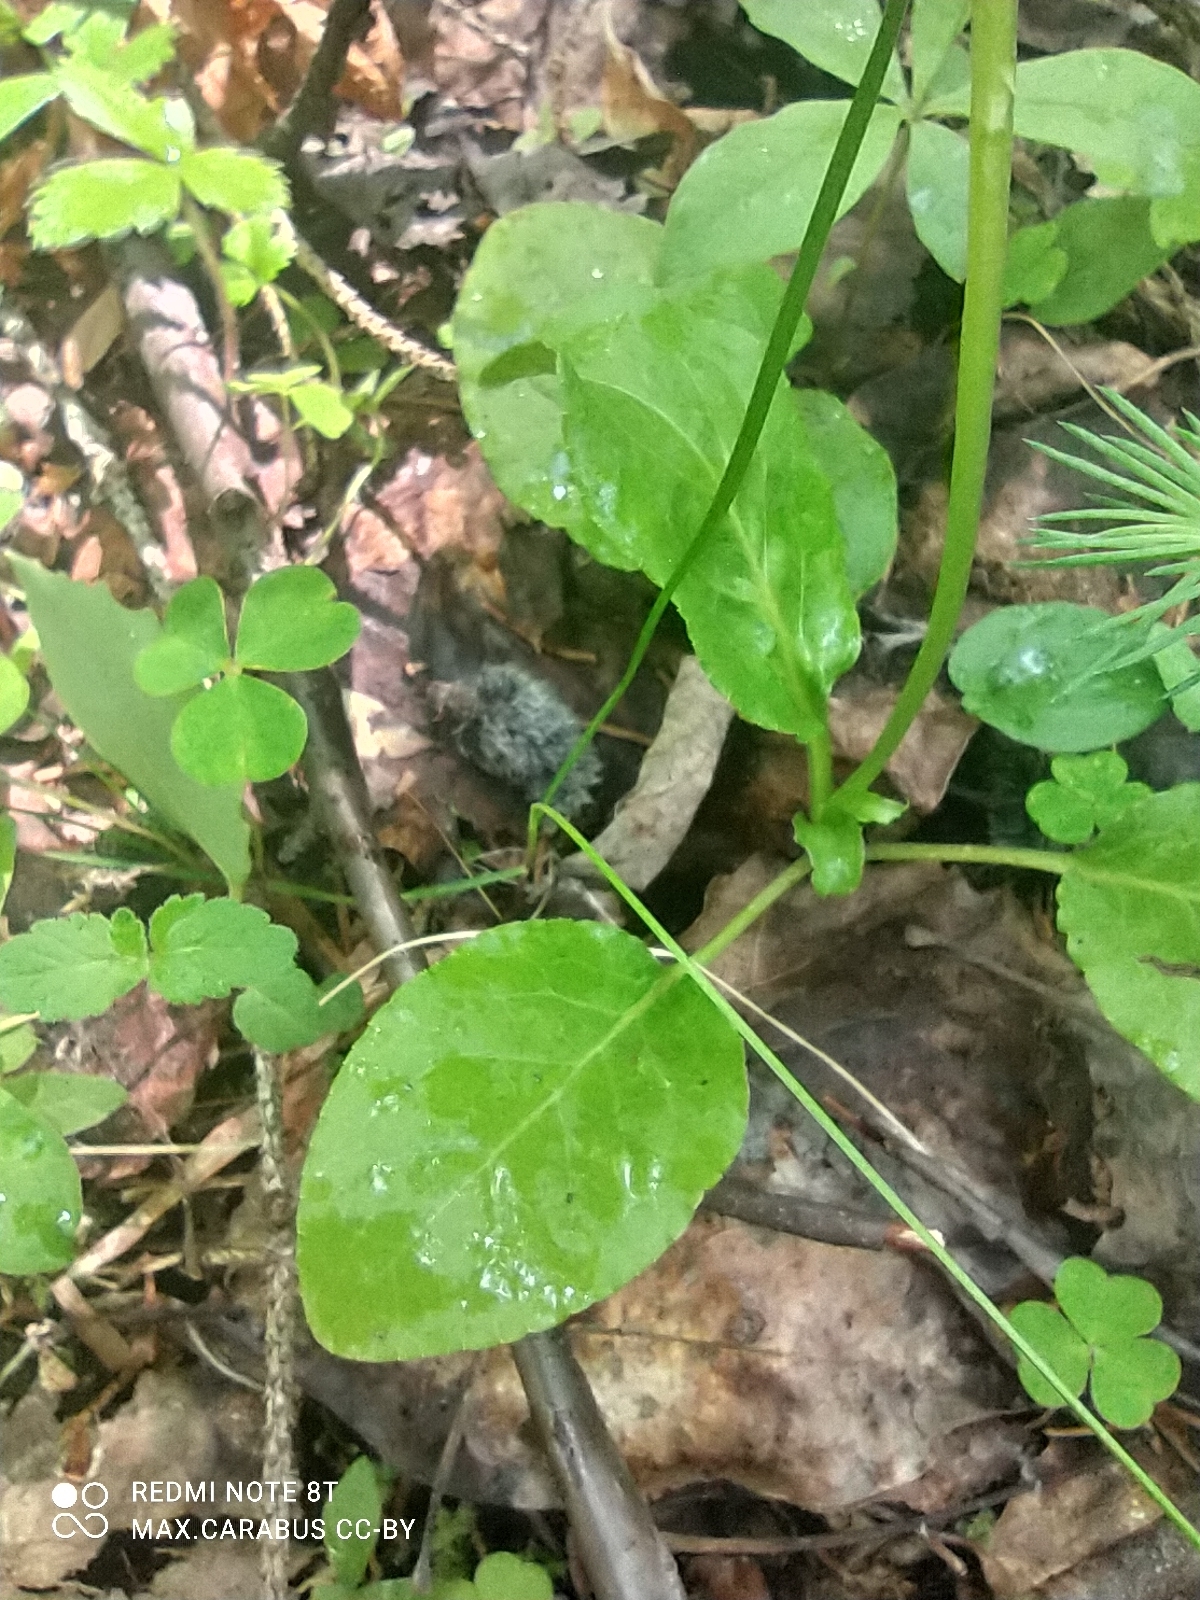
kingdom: Plantae
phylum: Tracheophyta
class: Magnoliopsida
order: Ericales
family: Ericaceae
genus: Pyrola
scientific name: Pyrola minor
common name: Common wintergreen
